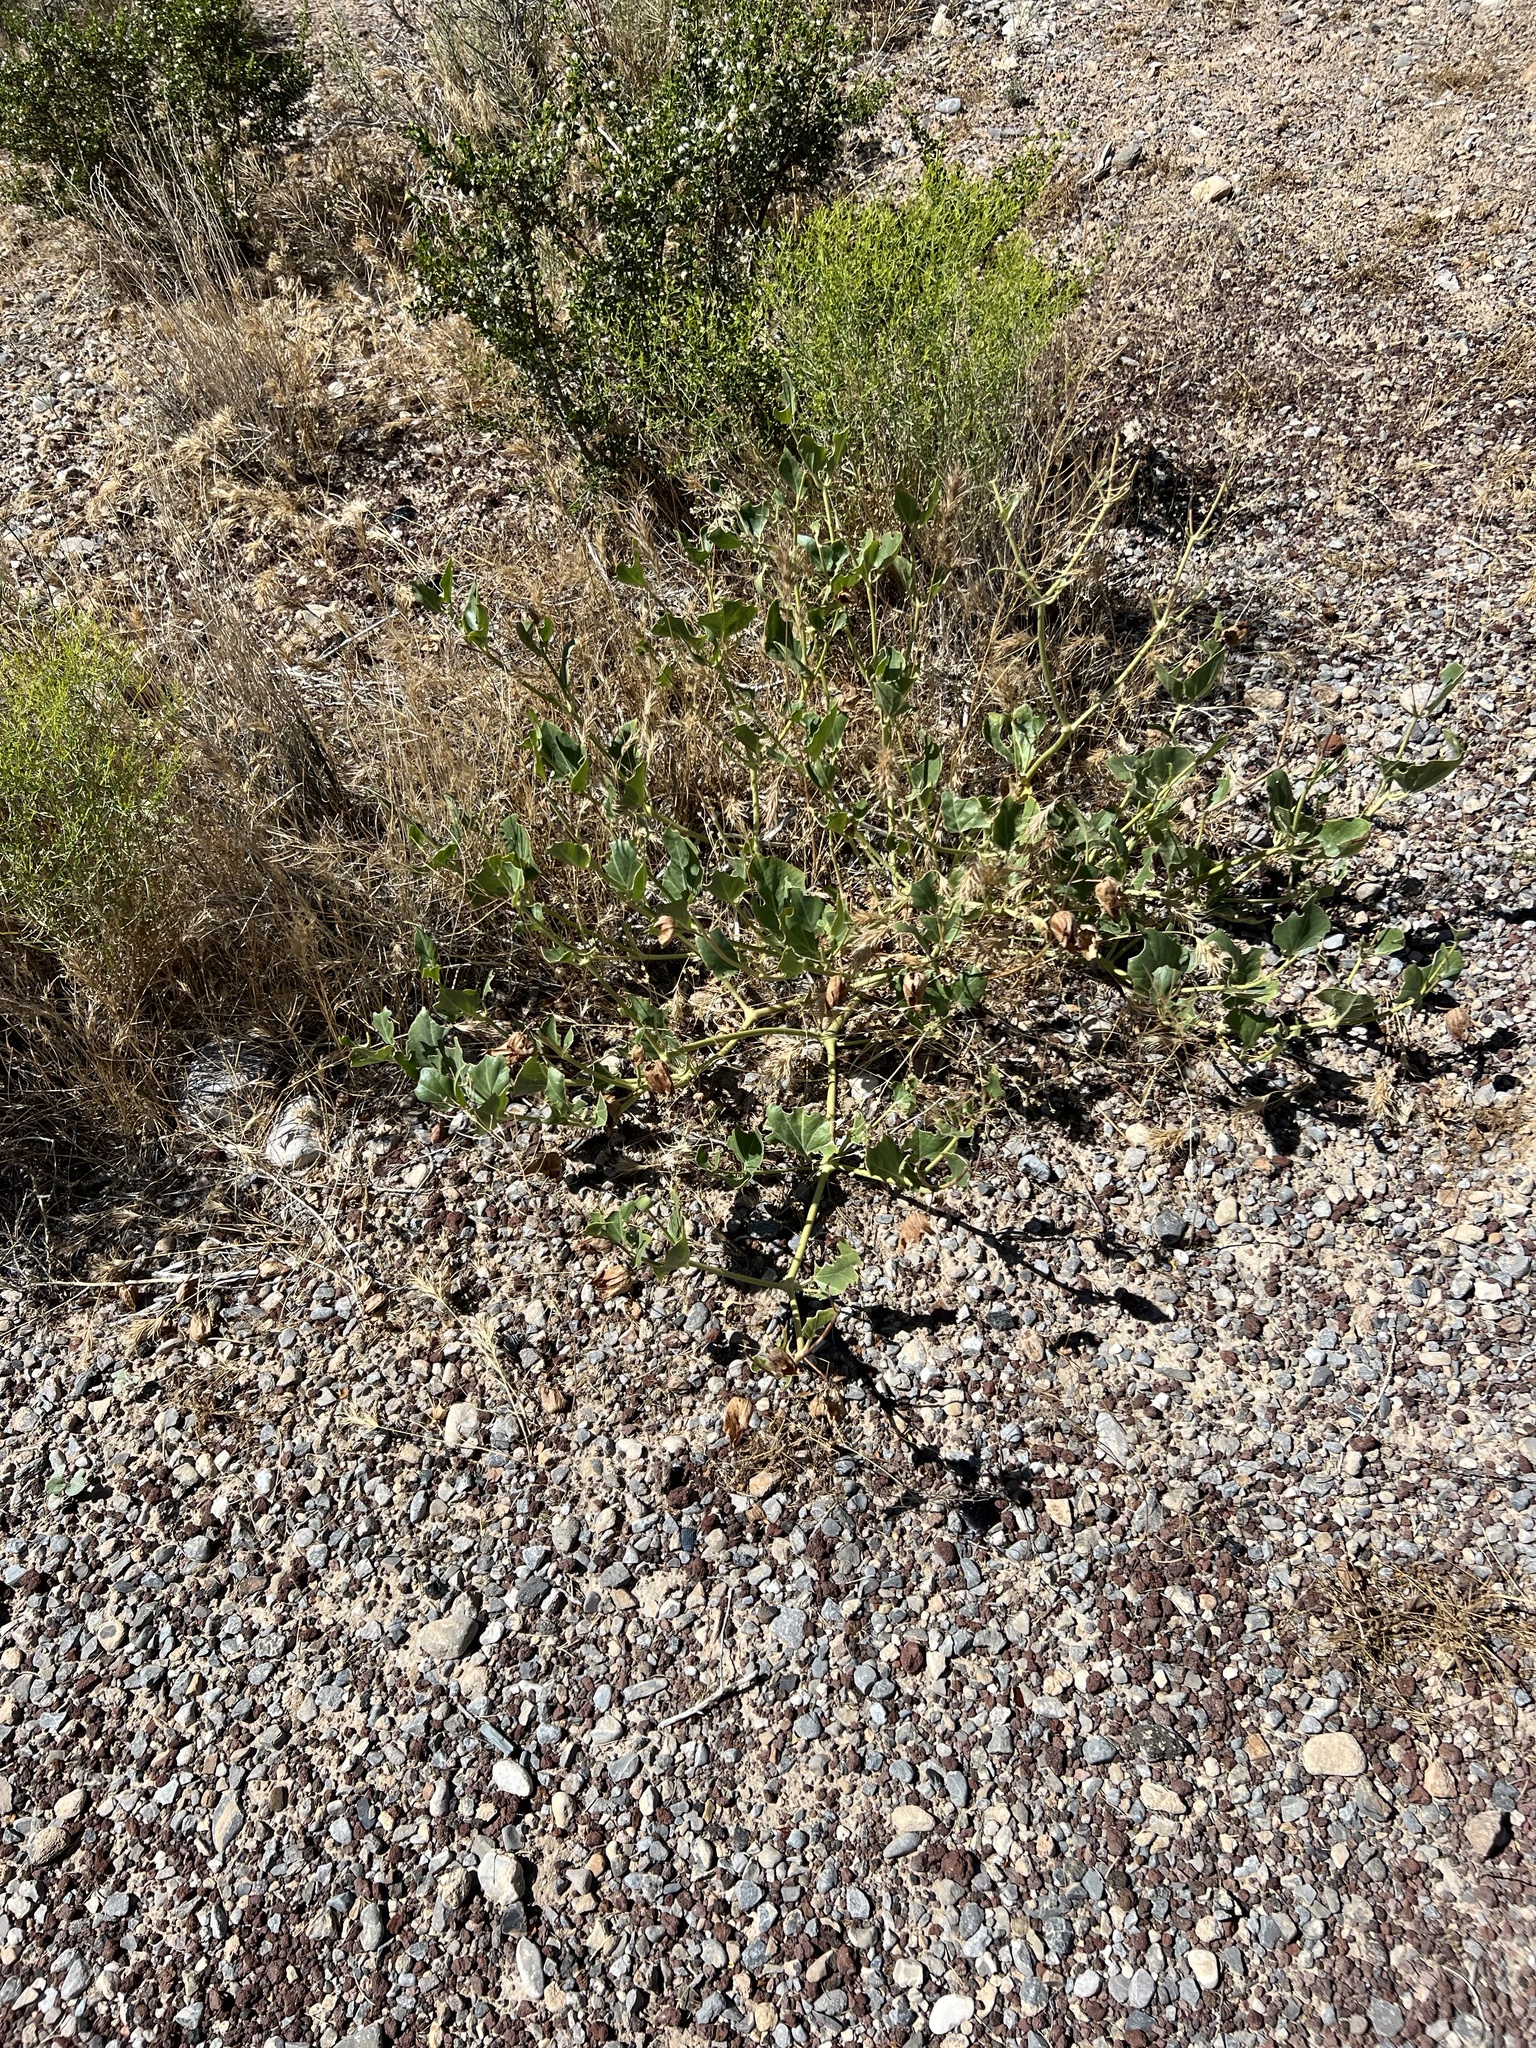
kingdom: Plantae
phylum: Tracheophyta
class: Magnoliopsida
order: Caryophyllales
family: Nyctaginaceae
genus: Mirabilis
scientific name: Mirabilis multiflora
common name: Froebel's four-o'clock
